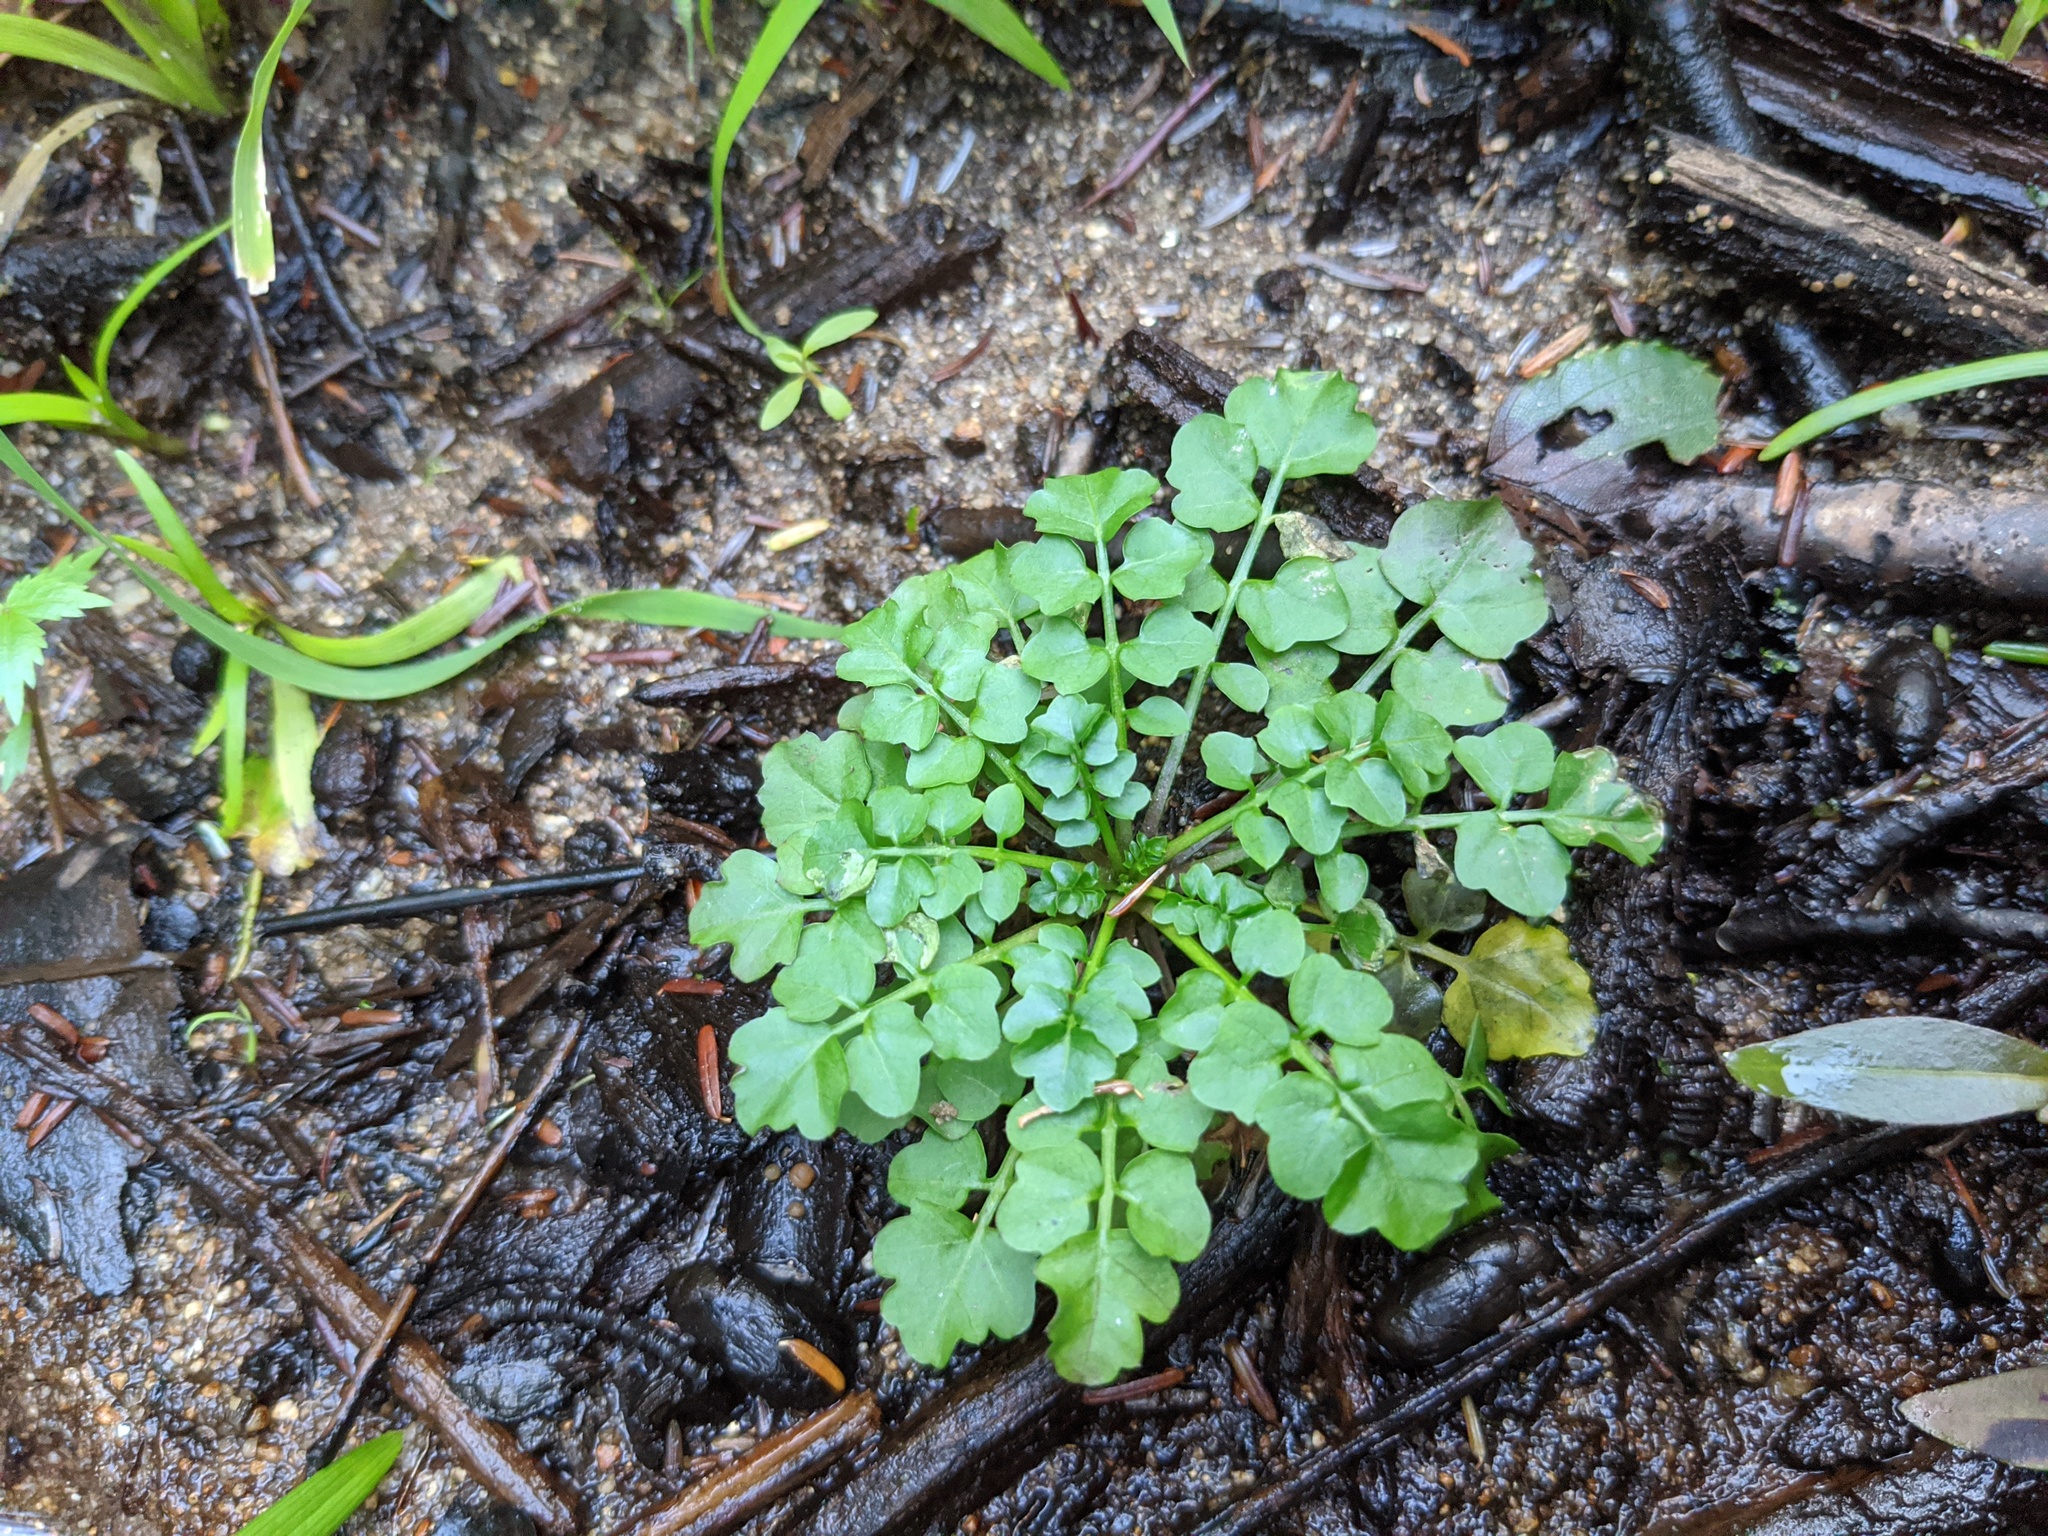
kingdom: Plantae
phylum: Tracheophyta
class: Magnoliopsida
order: Brassicales
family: Brassicaceae
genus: Cardamine
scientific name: Cardamine pensylvanica
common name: Pennsylvania bittercress
